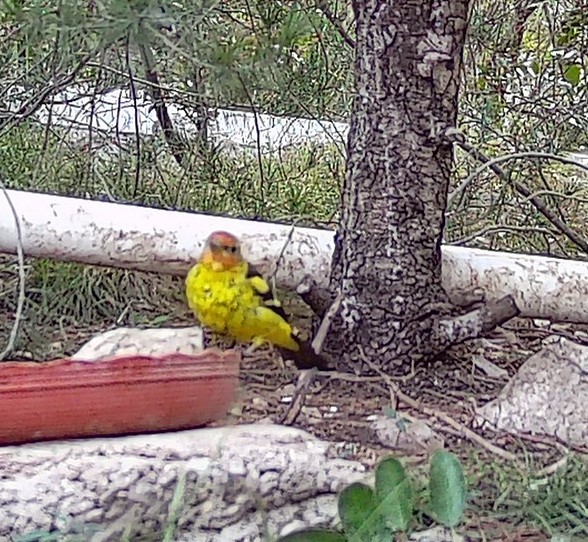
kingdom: Animalia
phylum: Chordata
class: Aves
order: Passeriformes
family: Cardinalidae
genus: Piranga
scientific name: Piranga ludoviciana
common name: Western tanager
